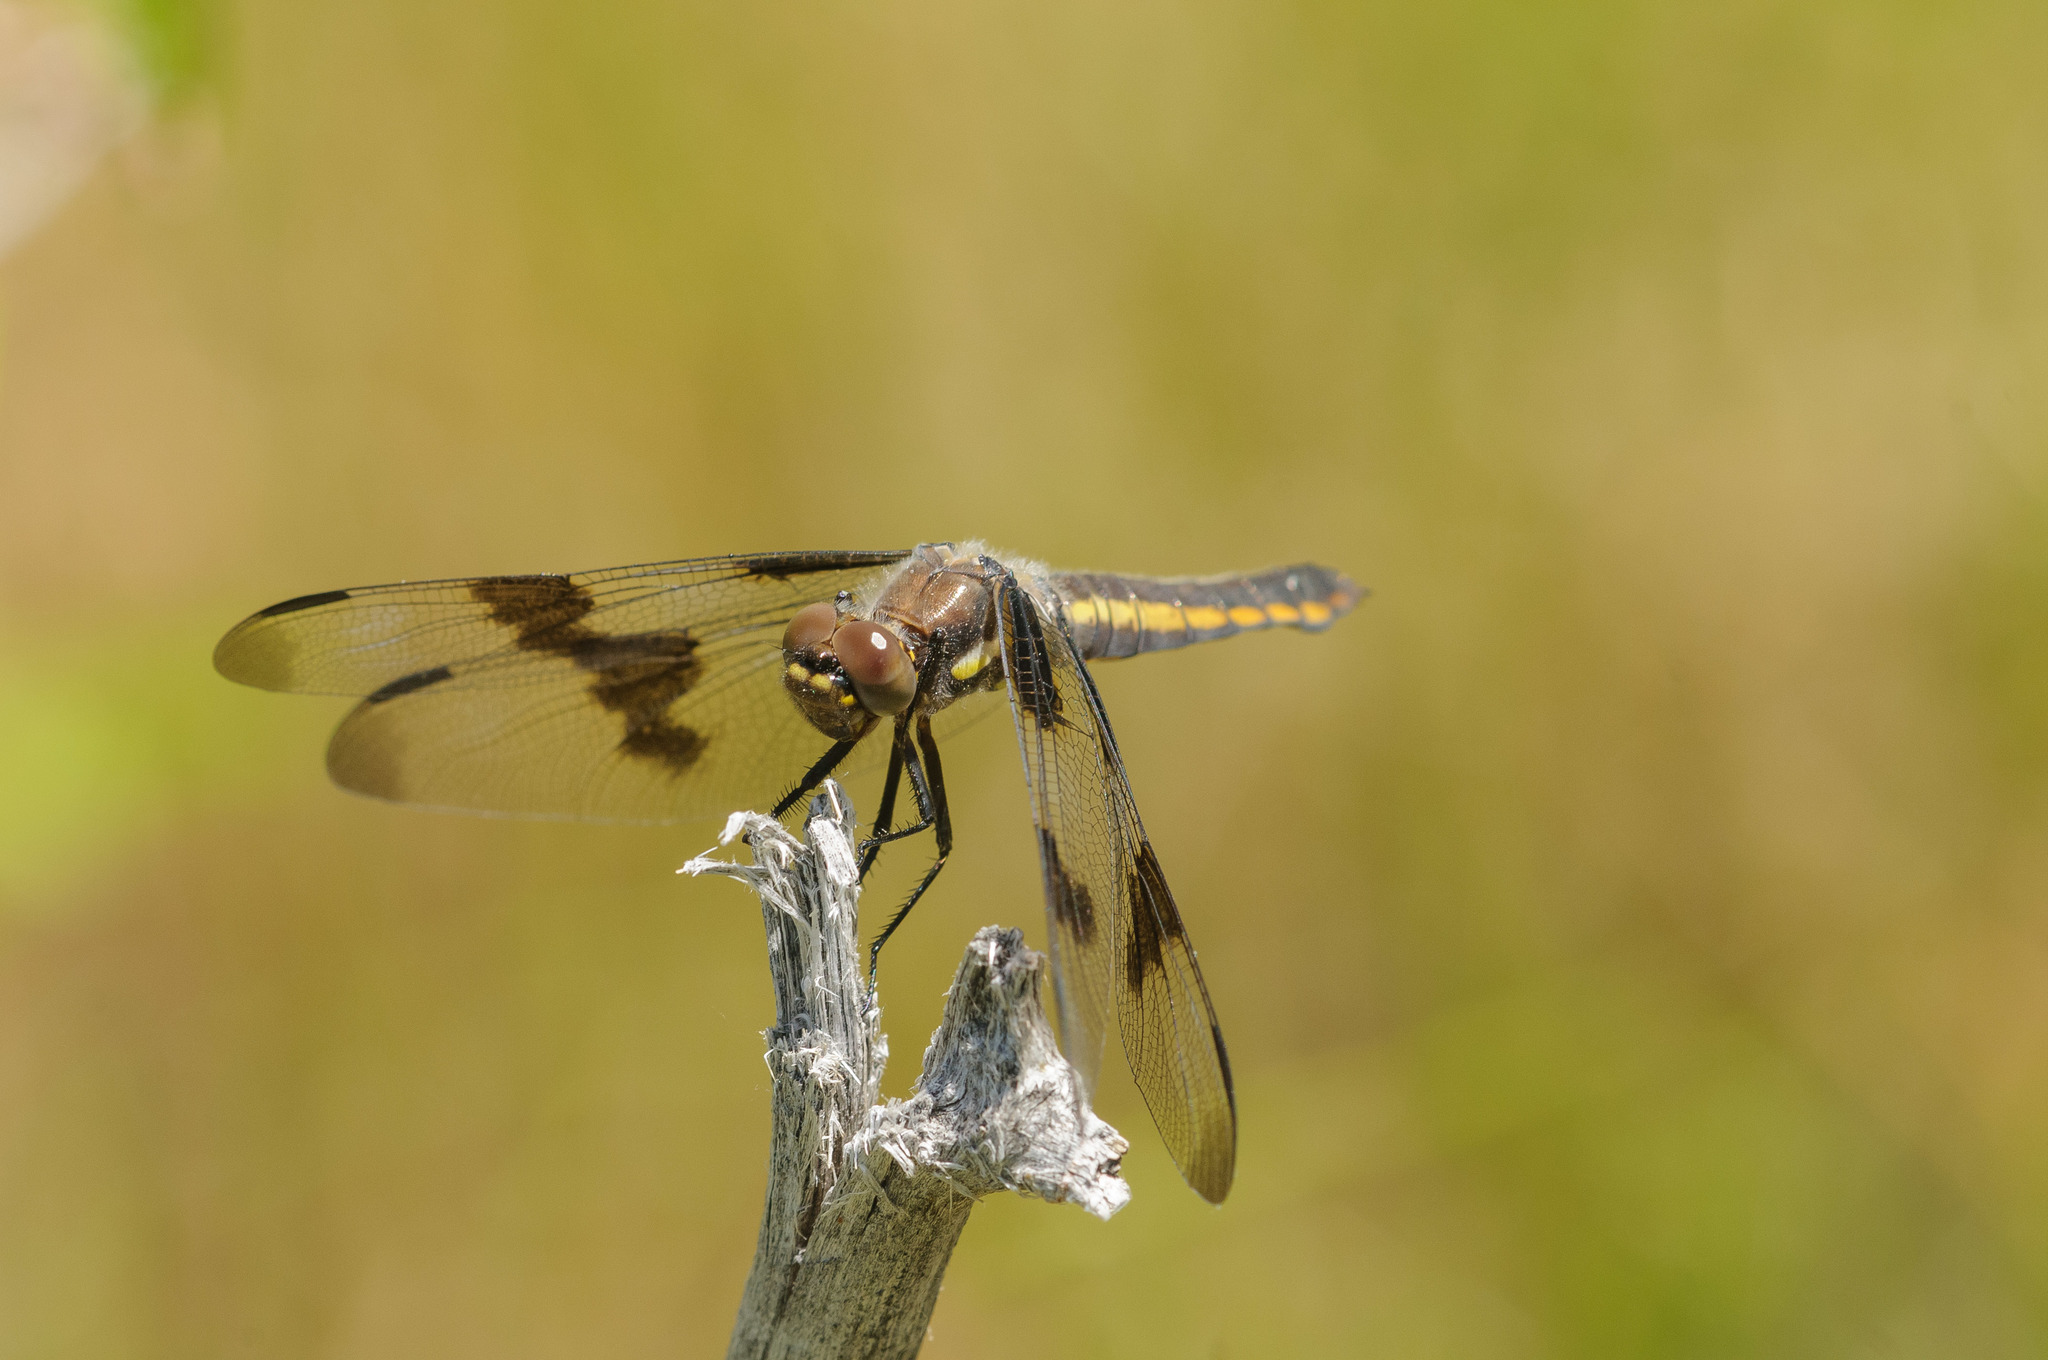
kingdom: Animalia
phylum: Arthropoda
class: Insecta
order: Odonata
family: Libellulidae
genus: Libellula
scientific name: Libellula pulchella
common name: Twelve-spotted skimmer
